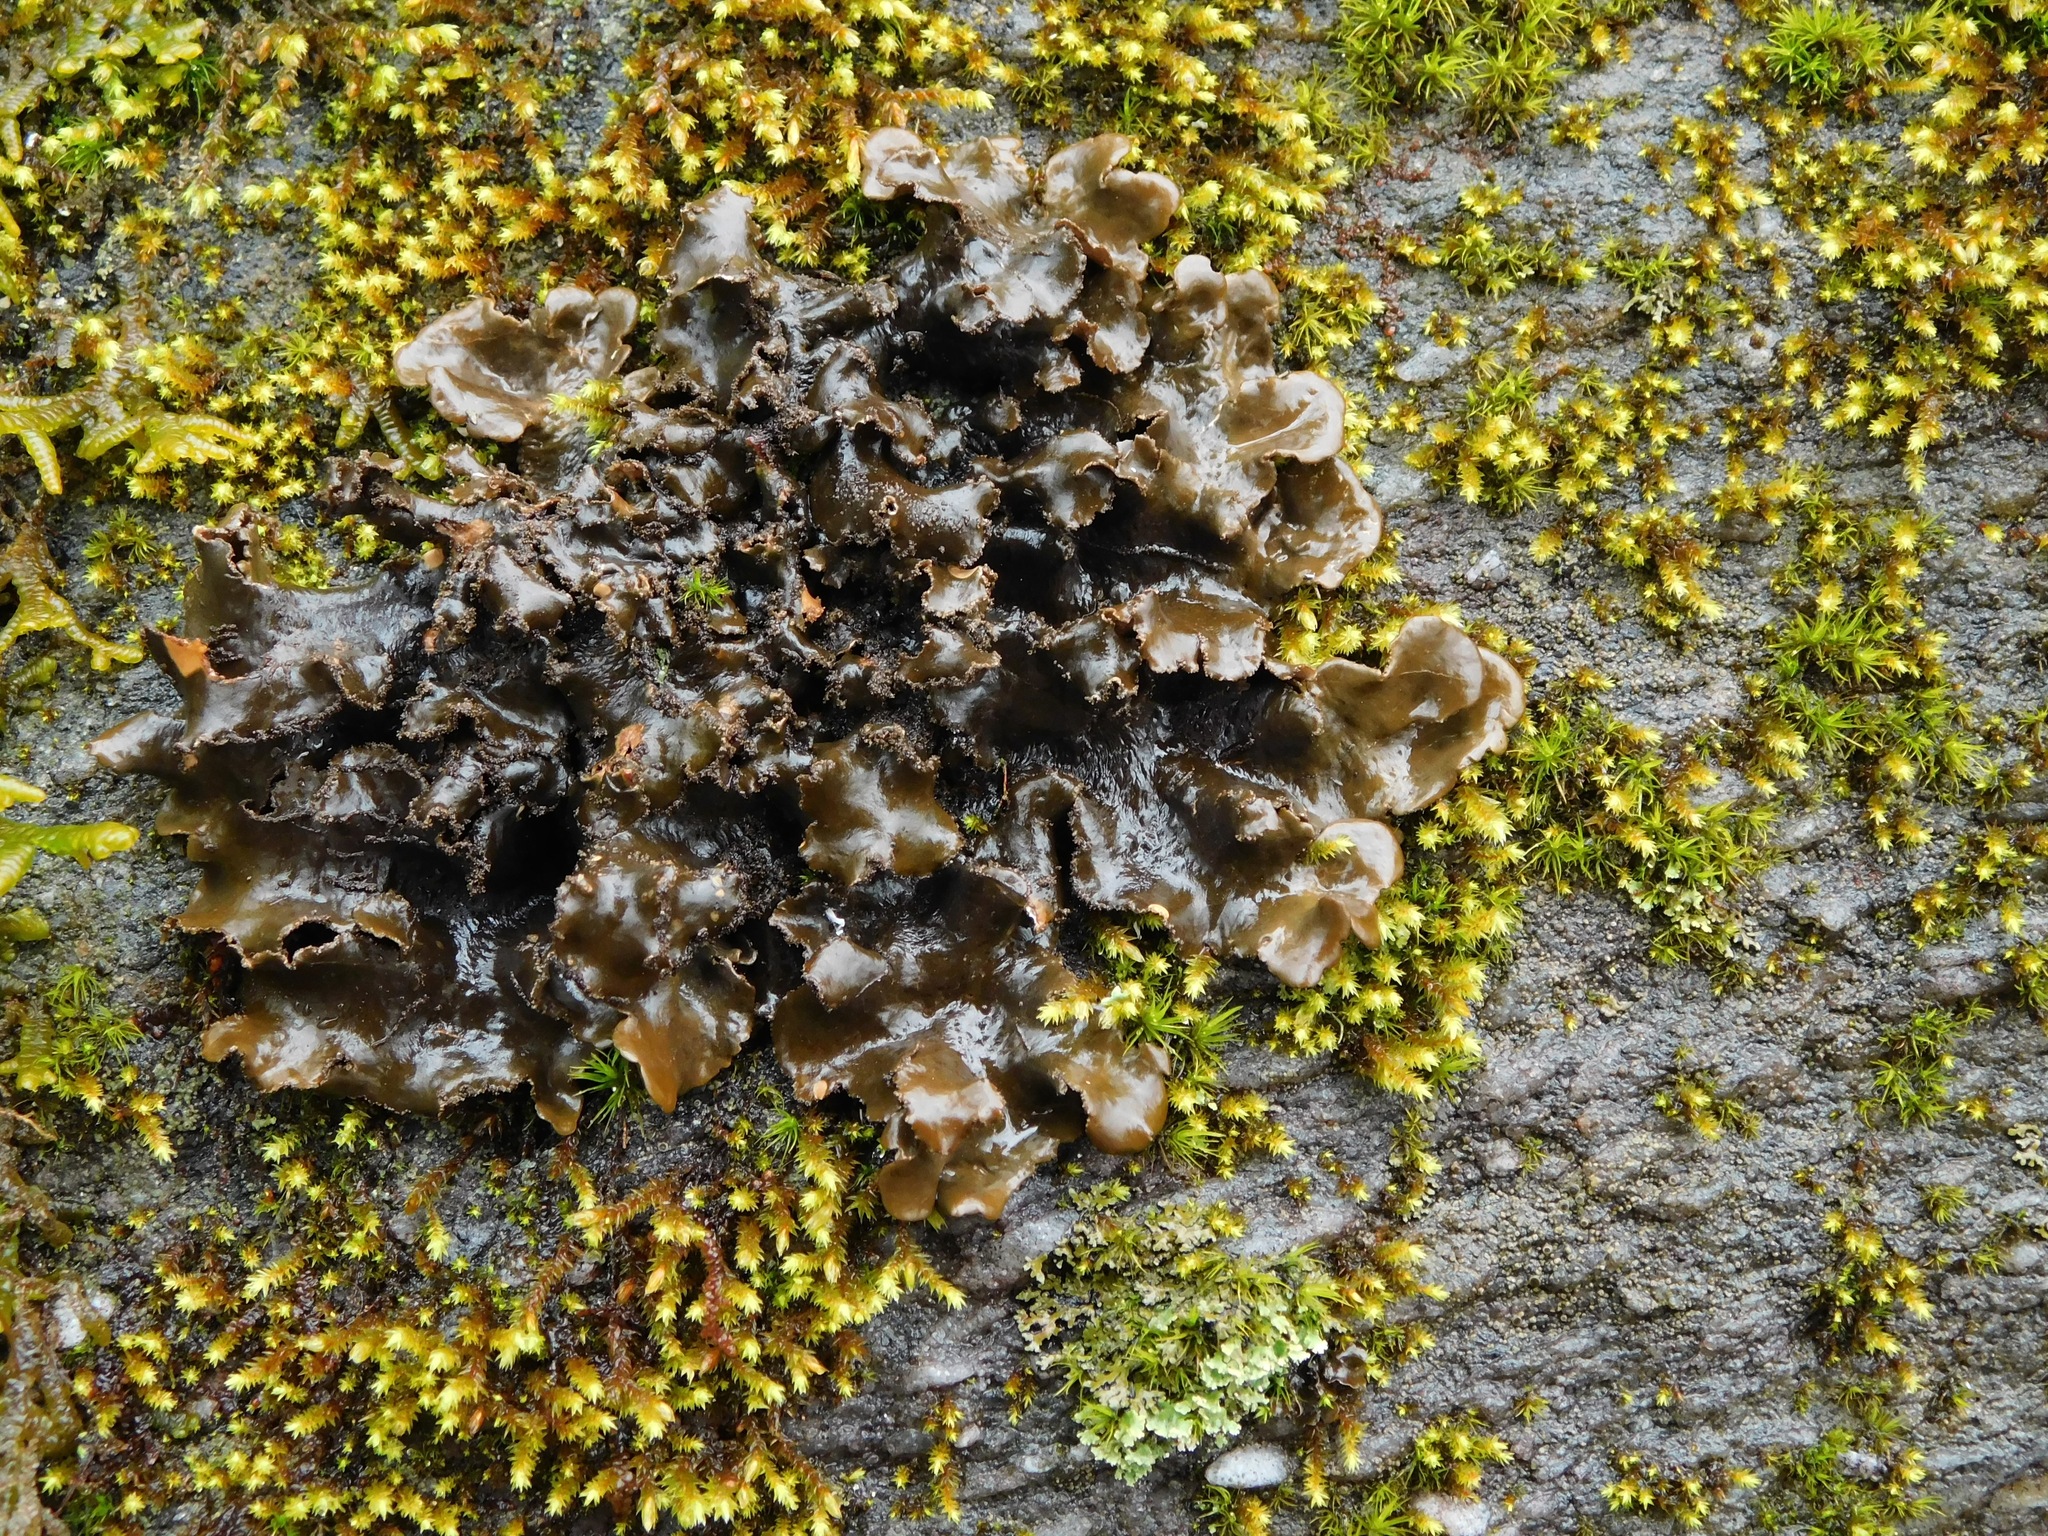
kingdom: Fungi
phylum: Ascomycota
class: Lecanoromycetes
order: Peltigerales
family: Lobariaceae
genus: Sticta
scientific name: Sticta beauvoisii
